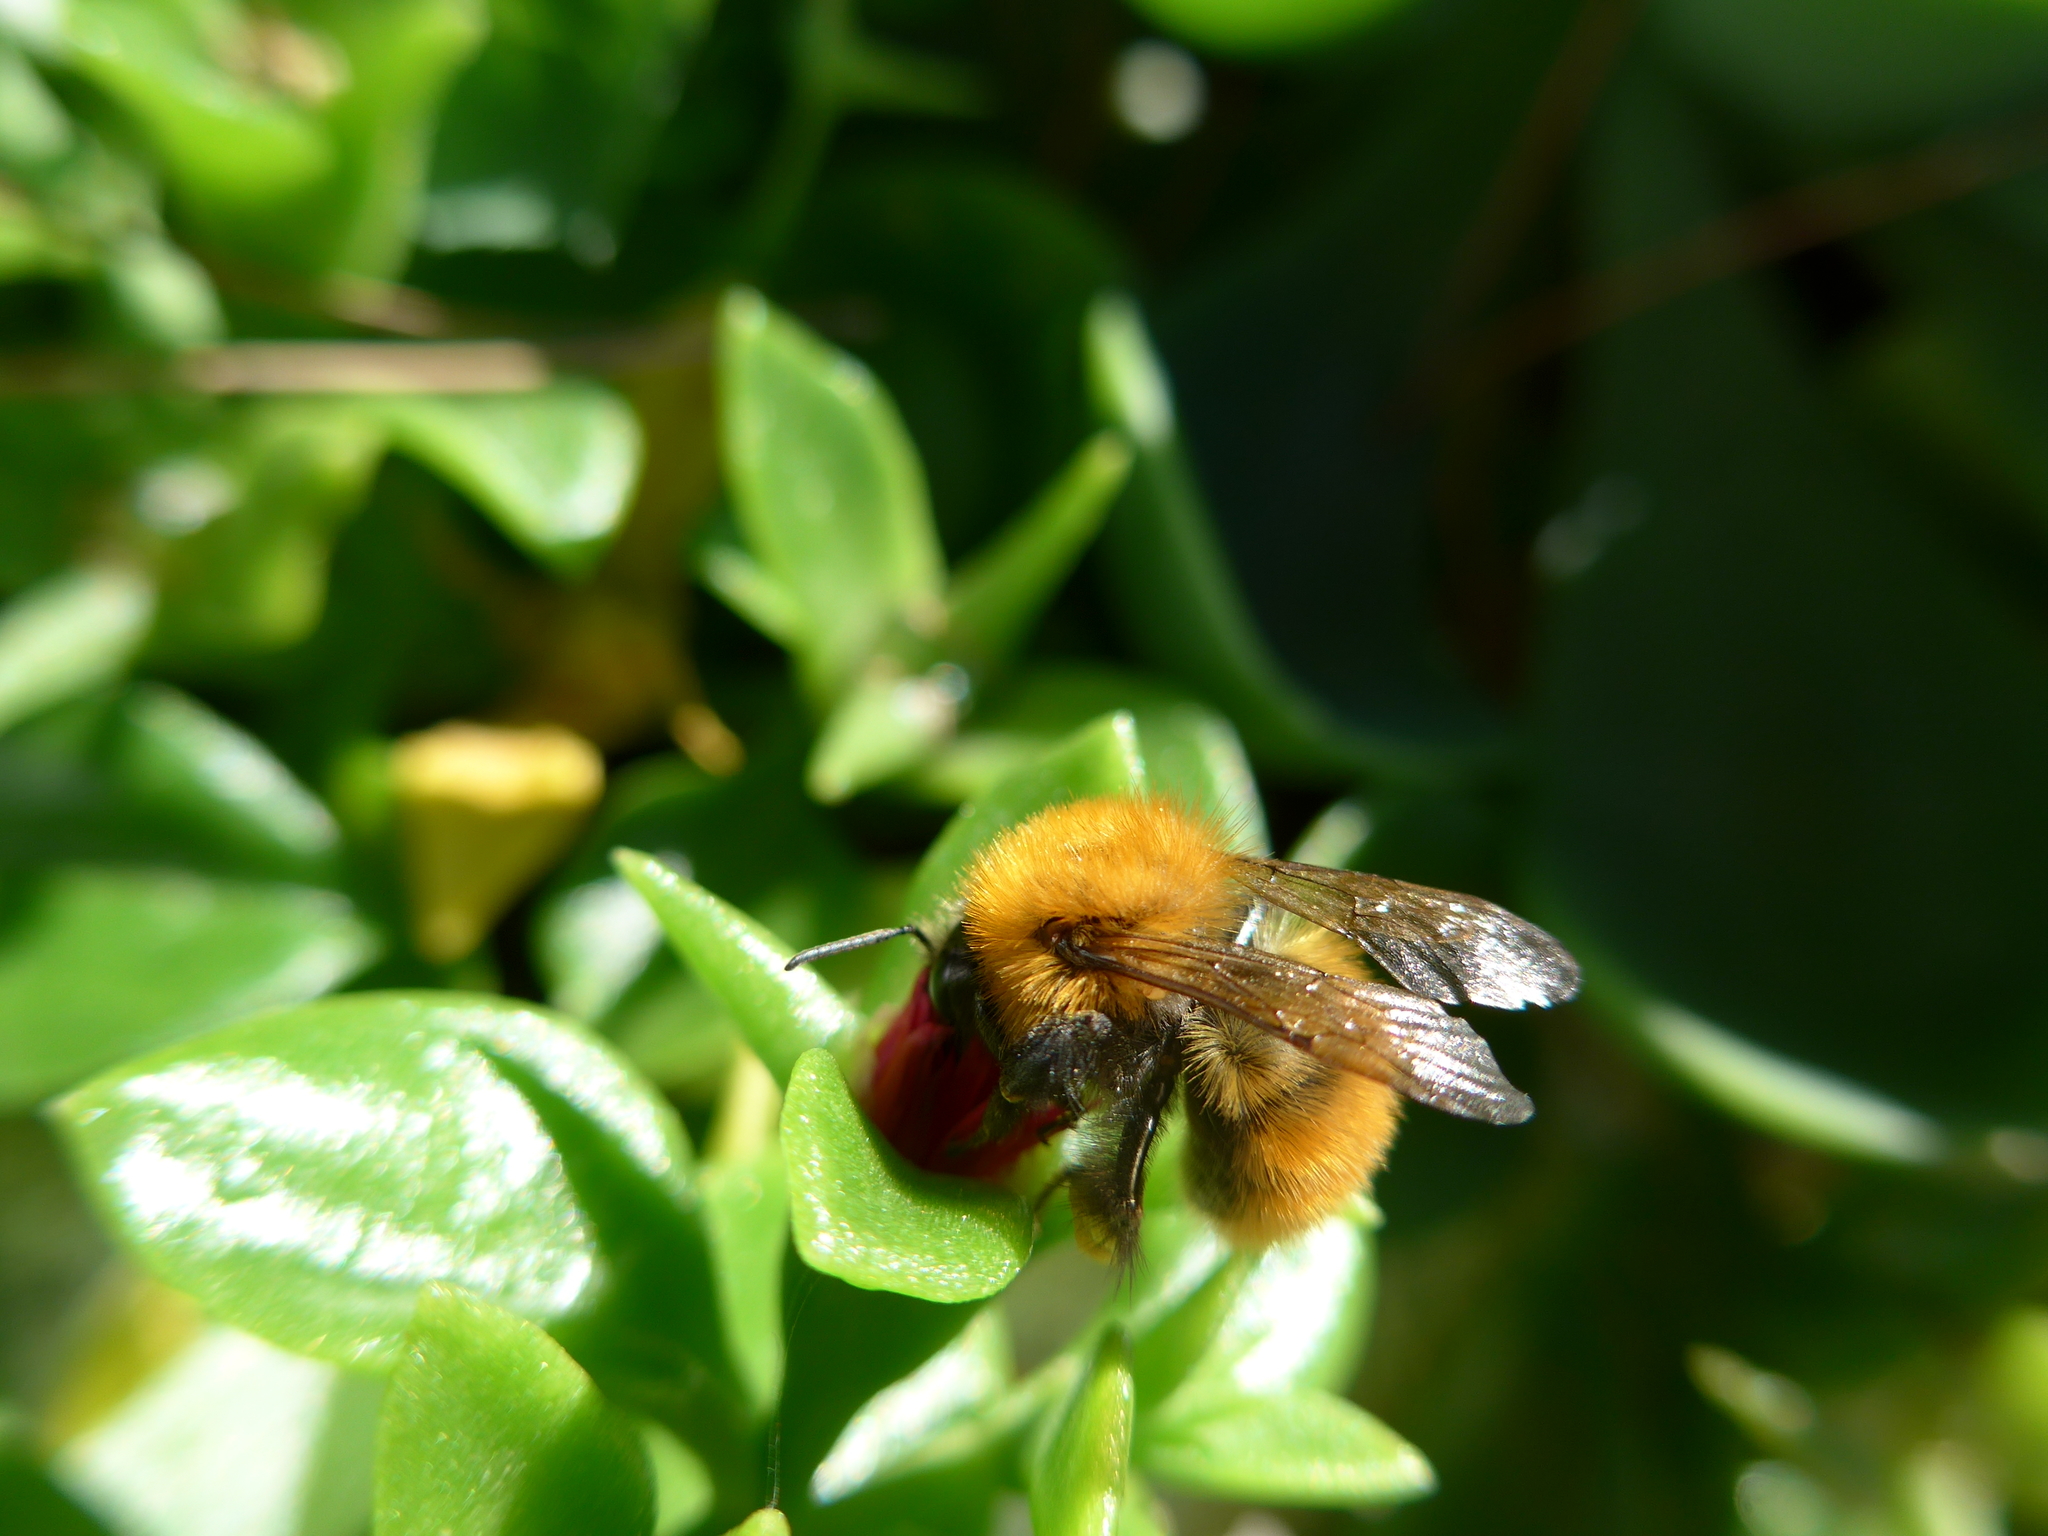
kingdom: Animalia
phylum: Arthropoda
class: Insecta
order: Hymenoptera
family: Apidae
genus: Bombus
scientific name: Bombus pascuorum
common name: Common carder bee
